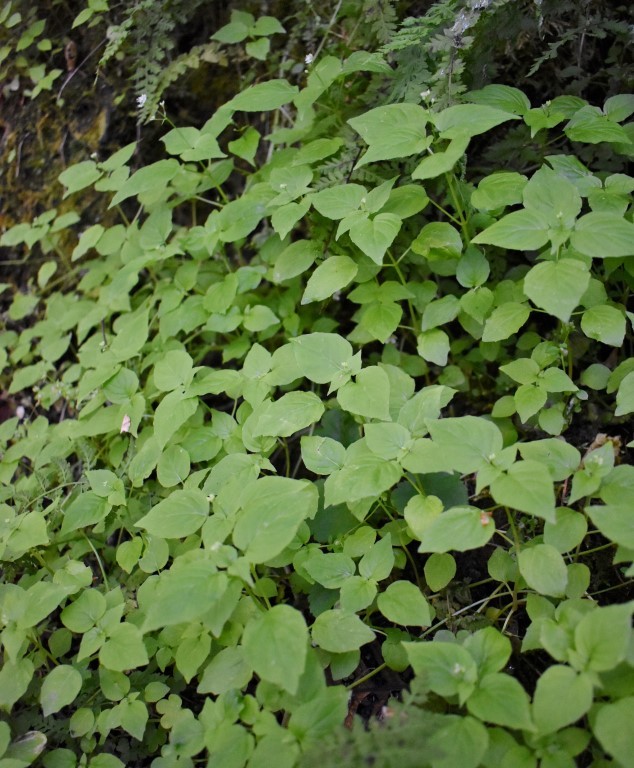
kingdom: Plantae
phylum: Tracheophyta
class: Magnoliopsida
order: Myrtales
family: Onagraceae
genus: Circaea
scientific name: Circaea alpina
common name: Alpine enchanter's-nightshade
